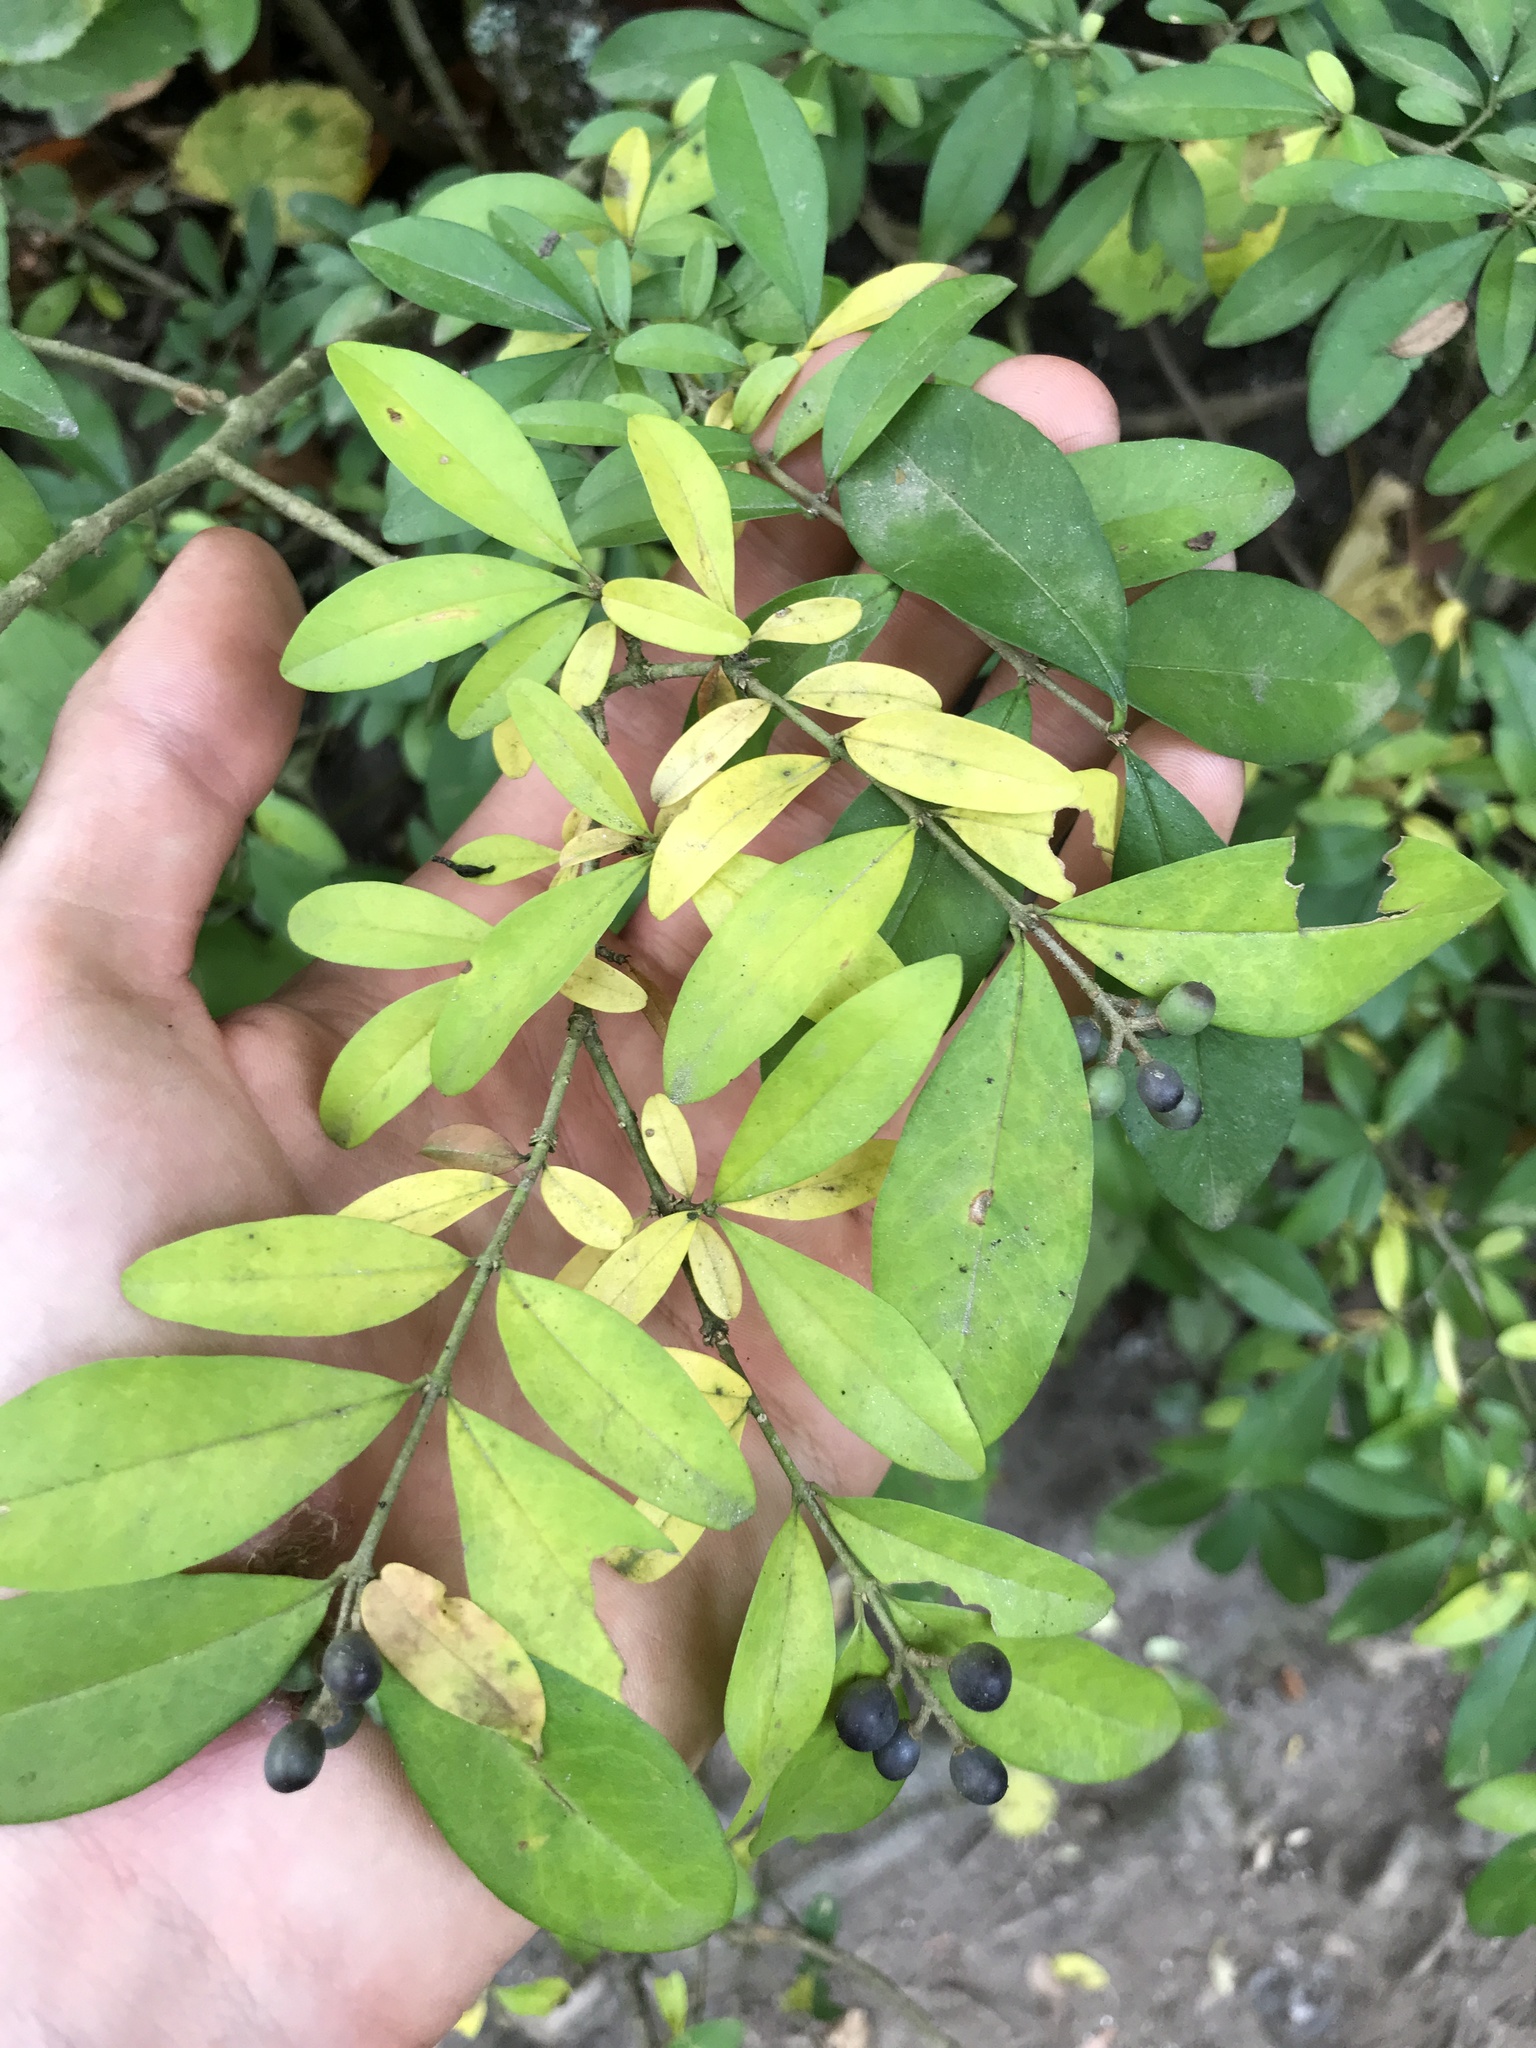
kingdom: Plantae
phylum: Tracheophyta
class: Magnoliopsida
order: Lamiales
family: Oleaceae
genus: Ligustrum
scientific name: Ligustrum obtusifolium
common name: Border privet
